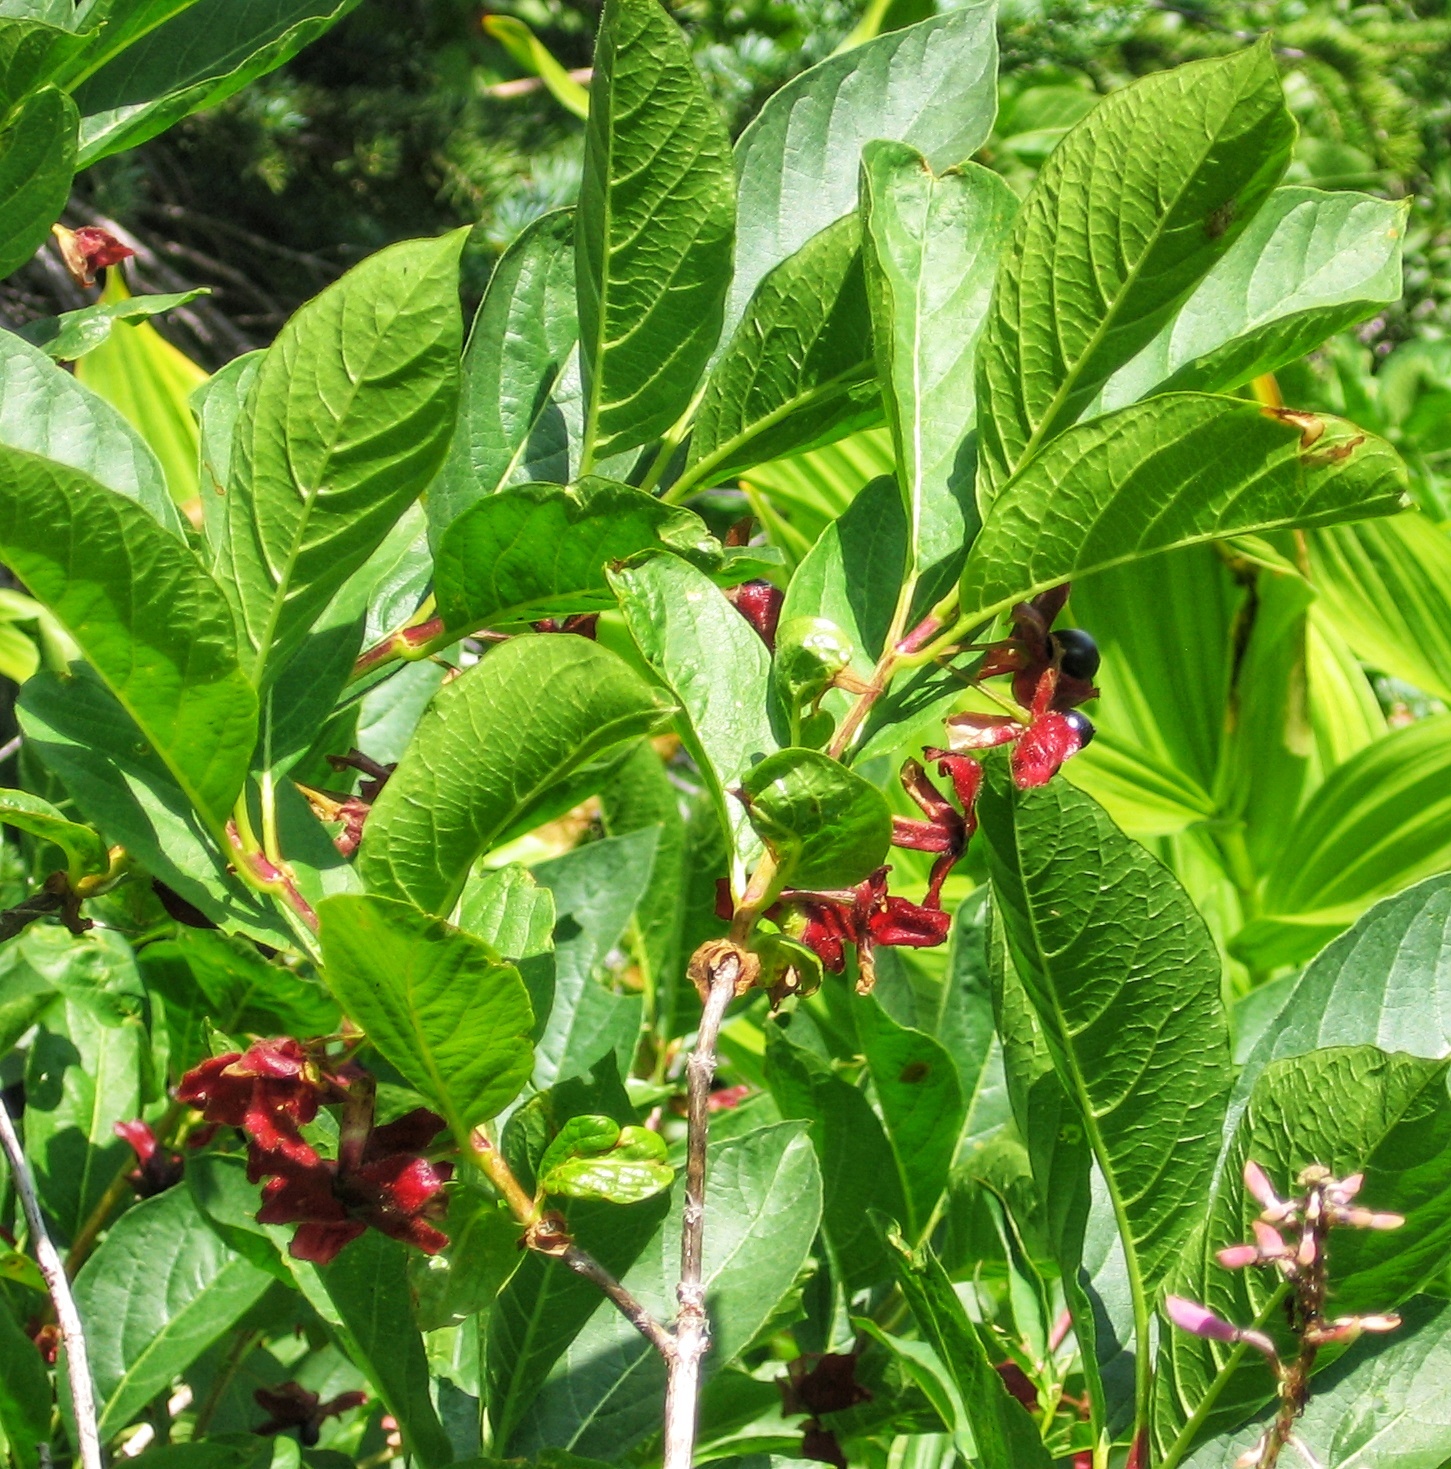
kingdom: Plantae
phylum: Tracheophyta
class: Magnoliopsida
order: Dipsacales
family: Caprifoliaceae
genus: Lonicera
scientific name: Lonicera involucrata
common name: Californian honeysuckle
